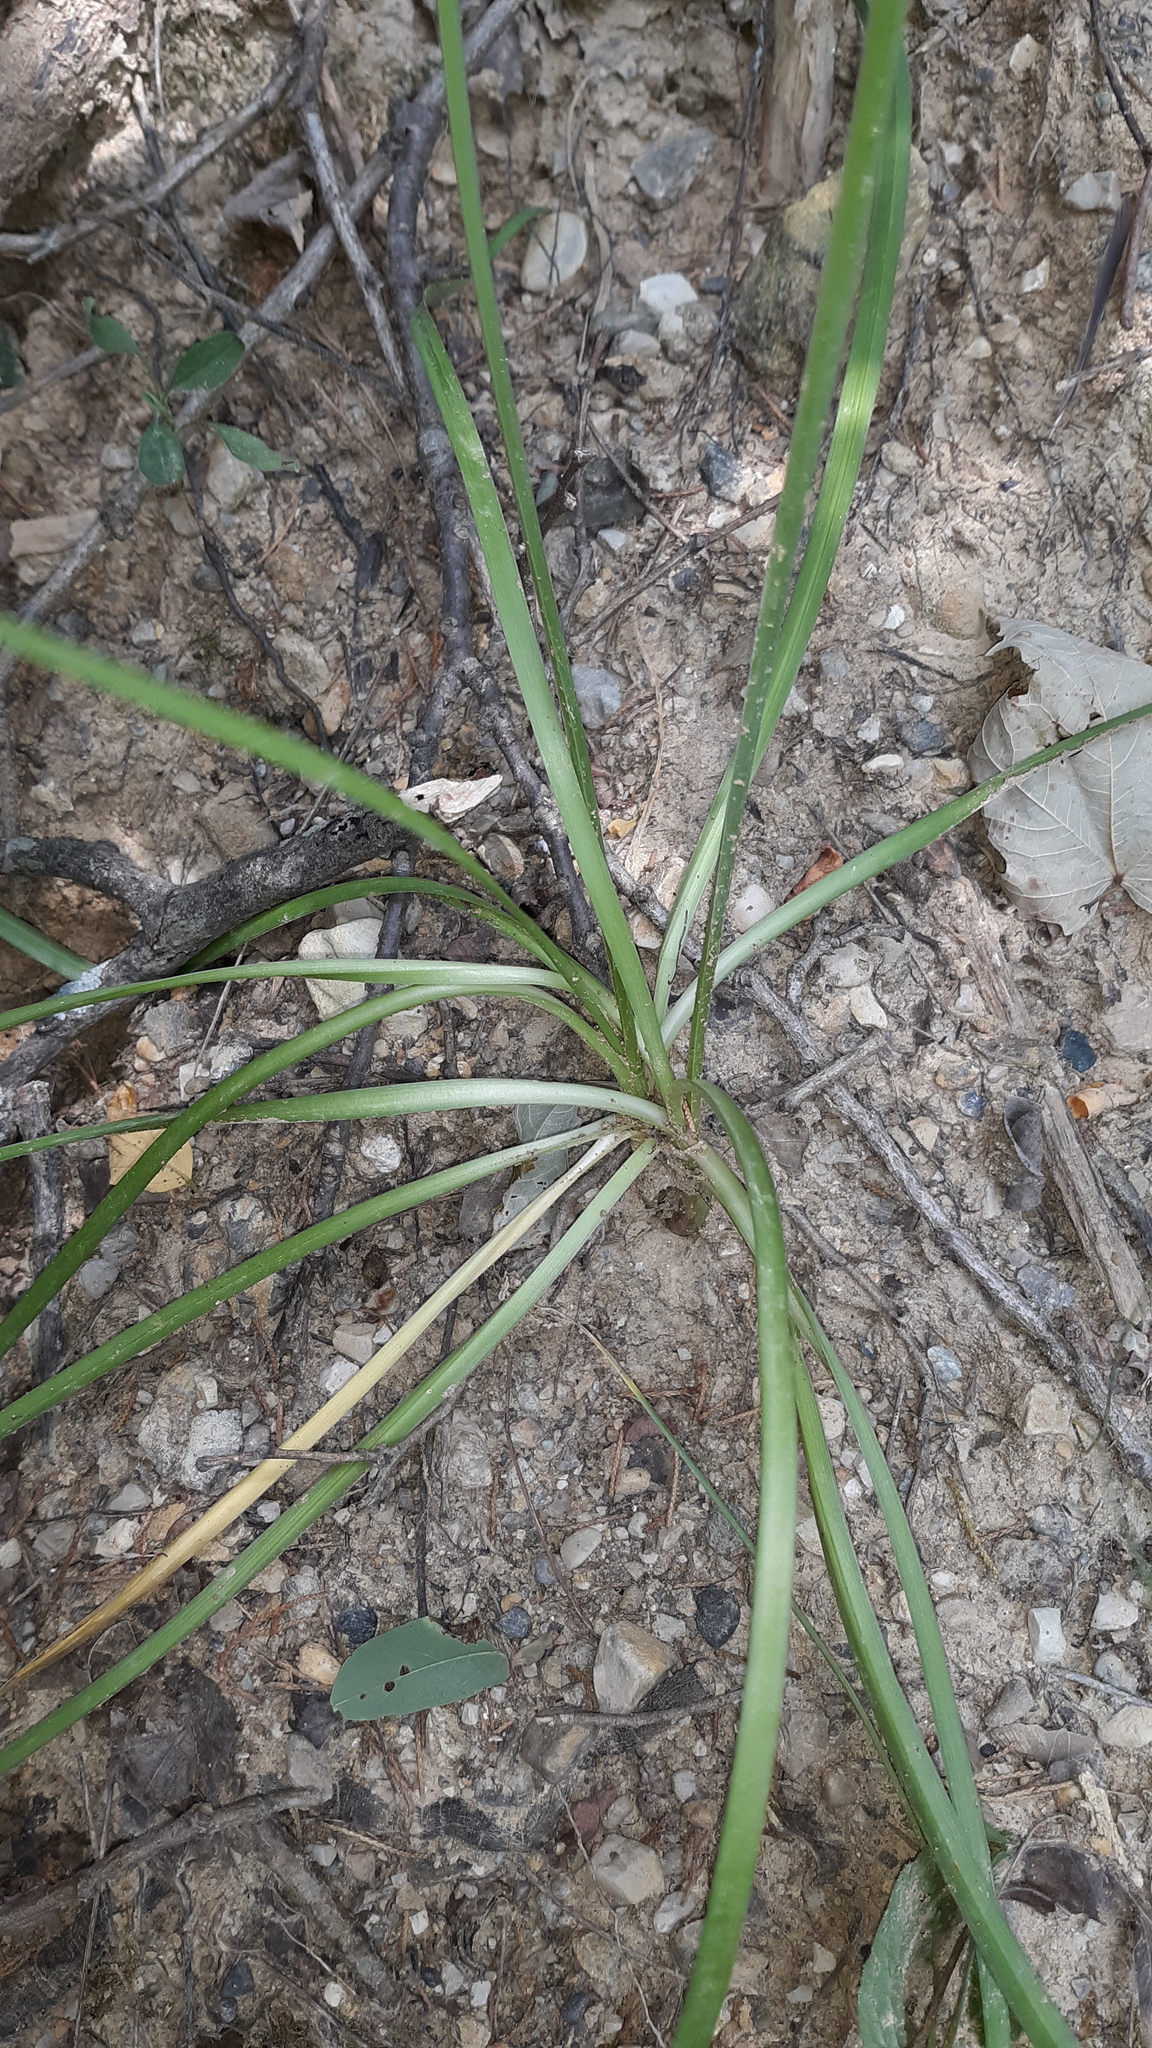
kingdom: Plantae
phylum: Tracheophyta
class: Liliopsida
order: Asparagales
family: Amaryllidaceae
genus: Allium
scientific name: Allium cernuum
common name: Nodding onion
